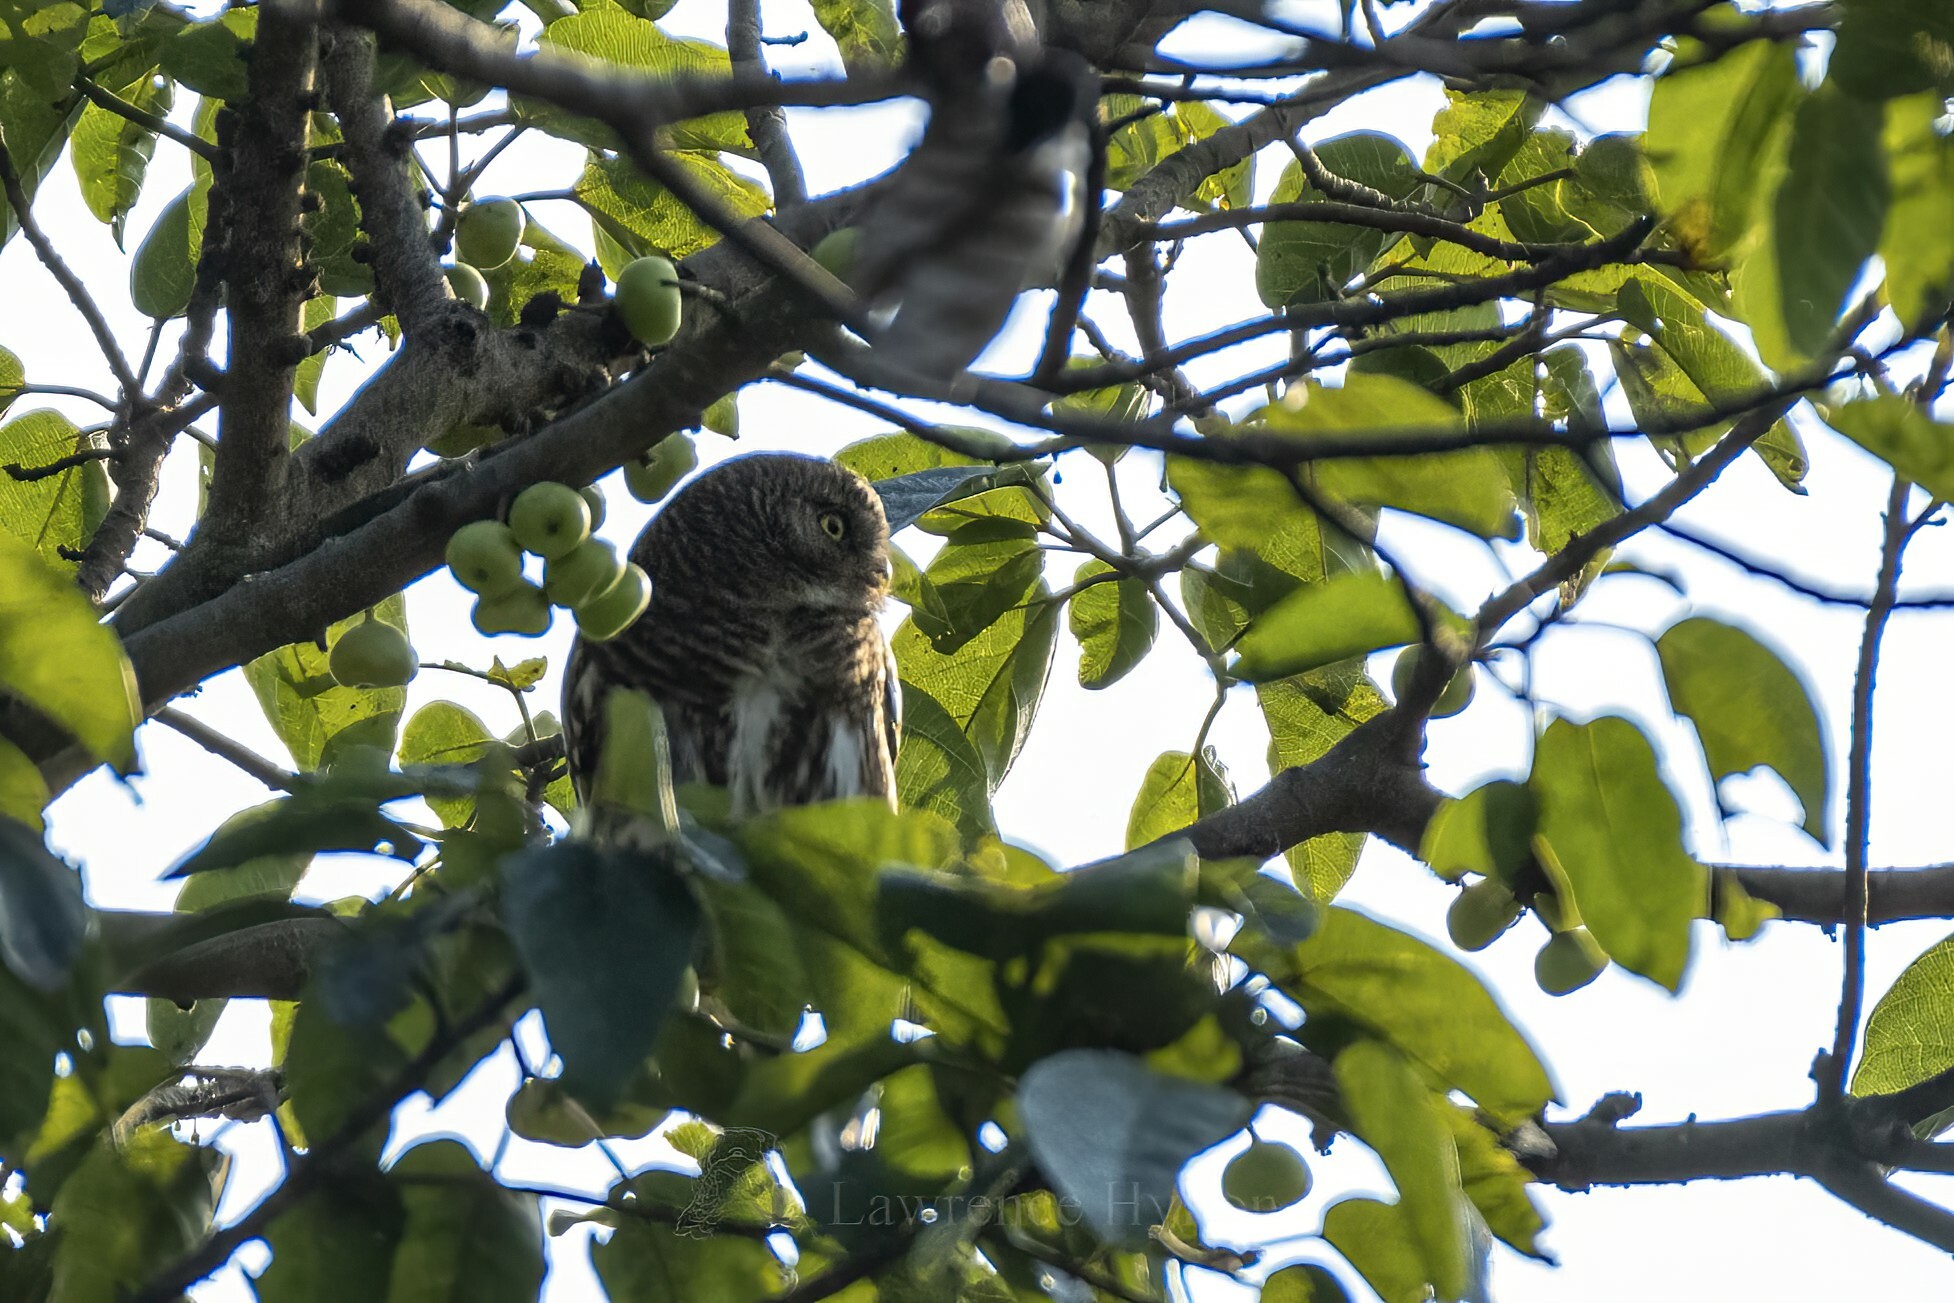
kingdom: Animalia
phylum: Chordata
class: Aves
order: Strigiformes
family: Strigidae
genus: Glaucidium
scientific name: Glaucidium cuculoides
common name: Asian barred owlet
